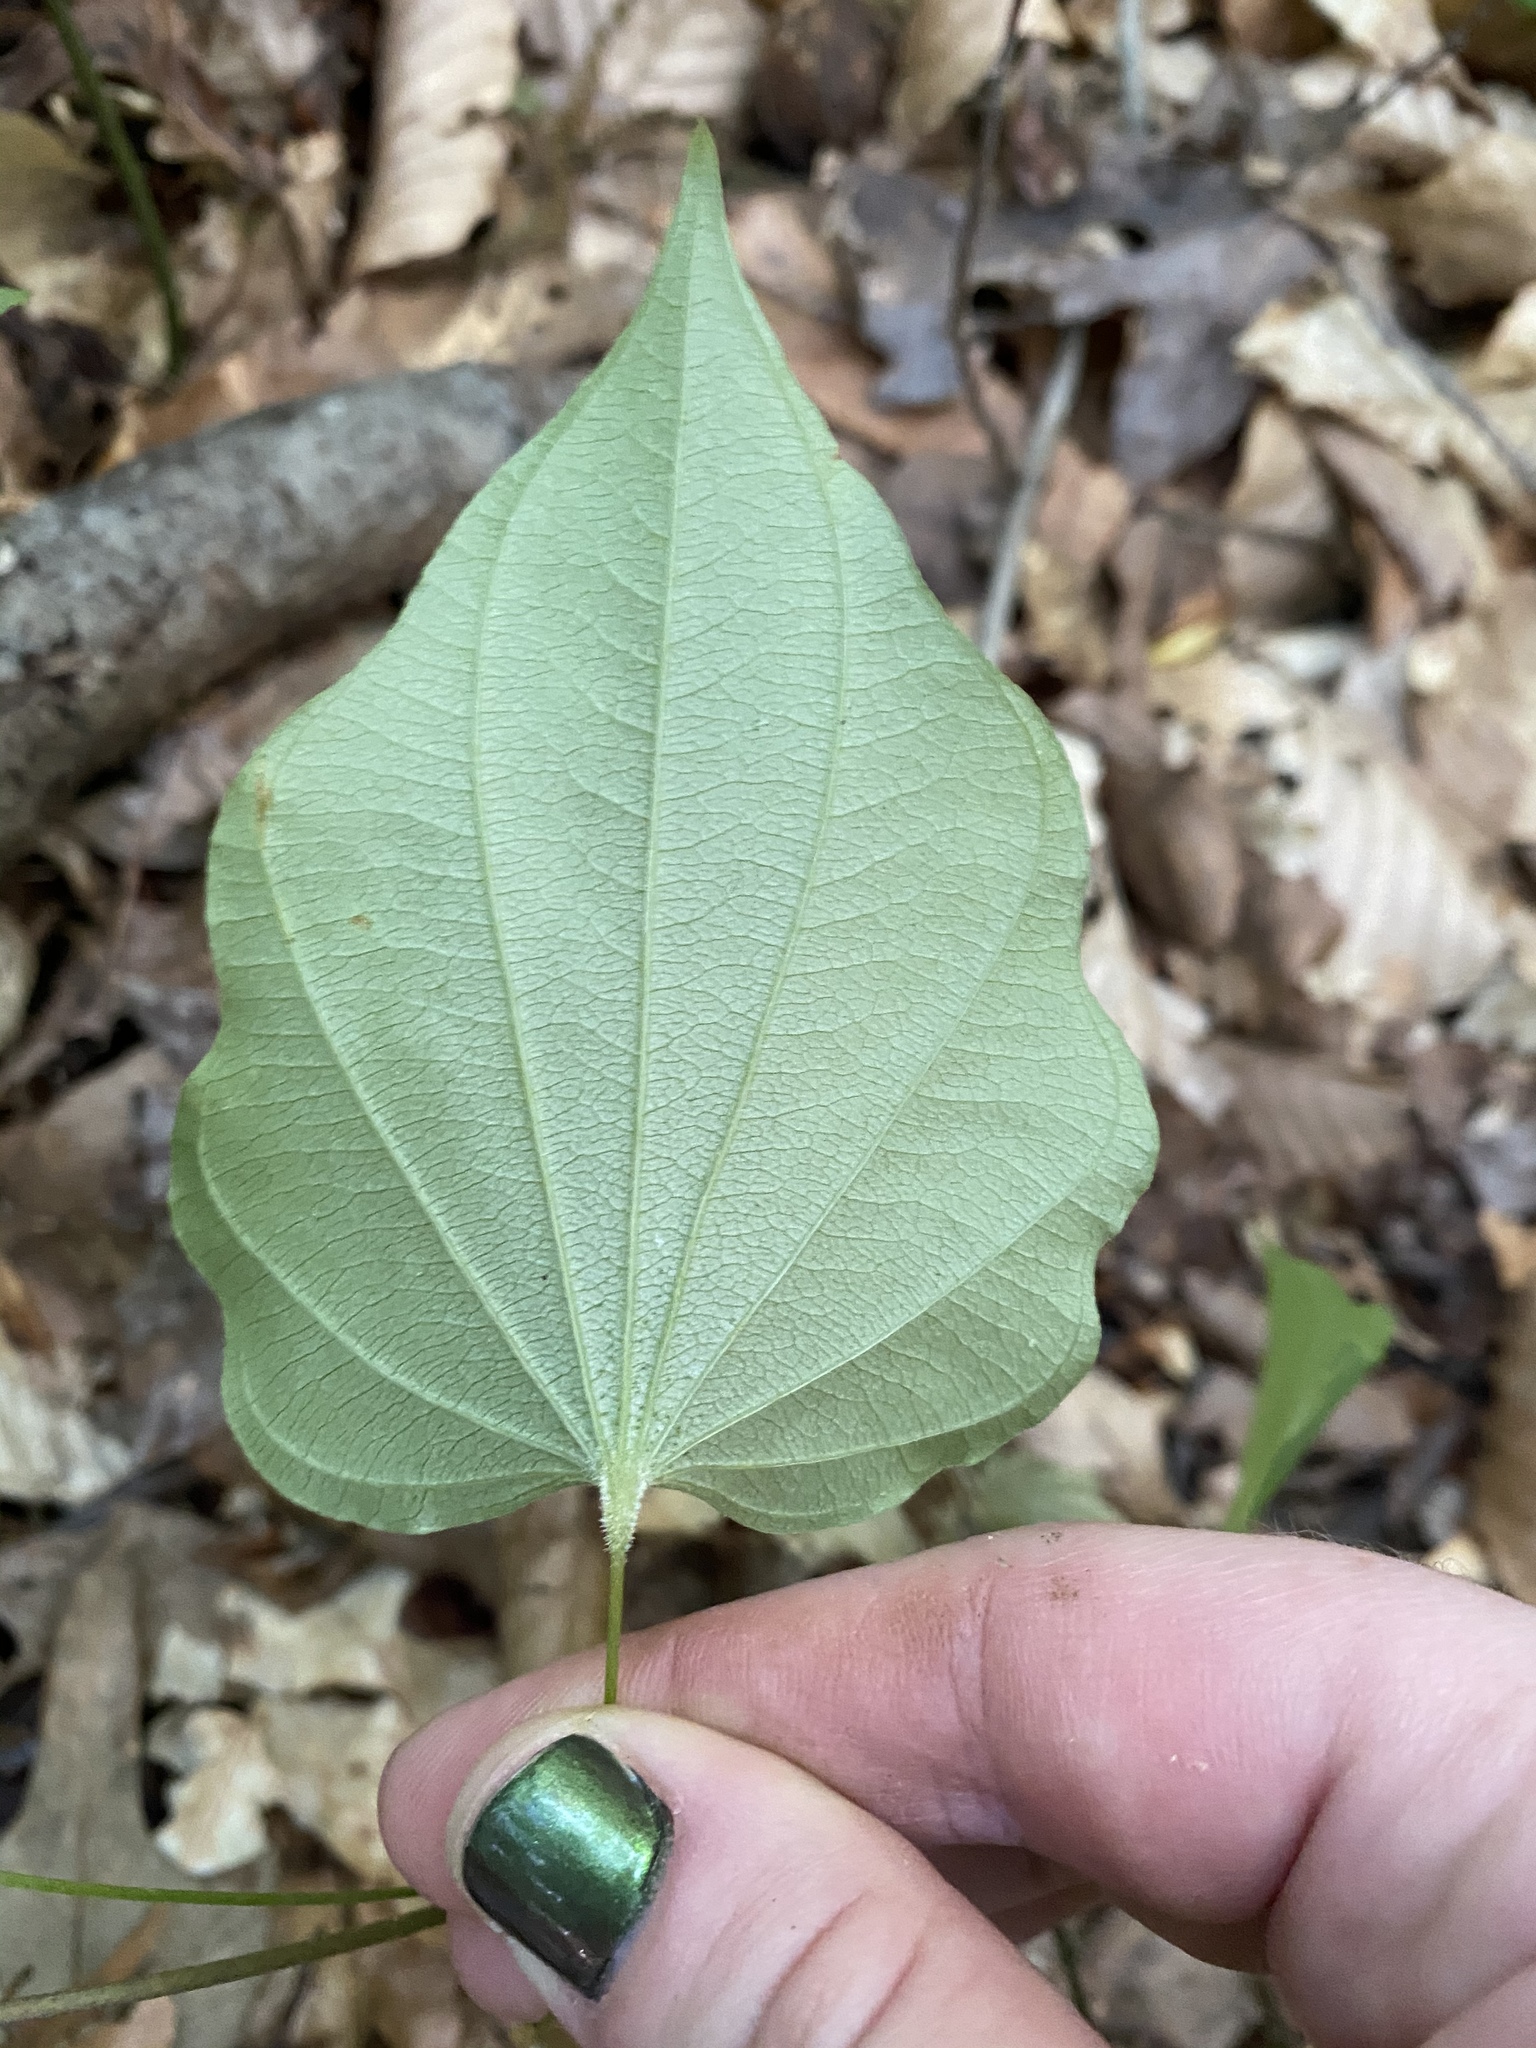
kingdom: Plantae
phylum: Tracheophyta
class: Liliopsida
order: Dioscoreales
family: Dioscoreaceae
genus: Dioscorea
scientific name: Dioscorea villosa
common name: Wild yam
